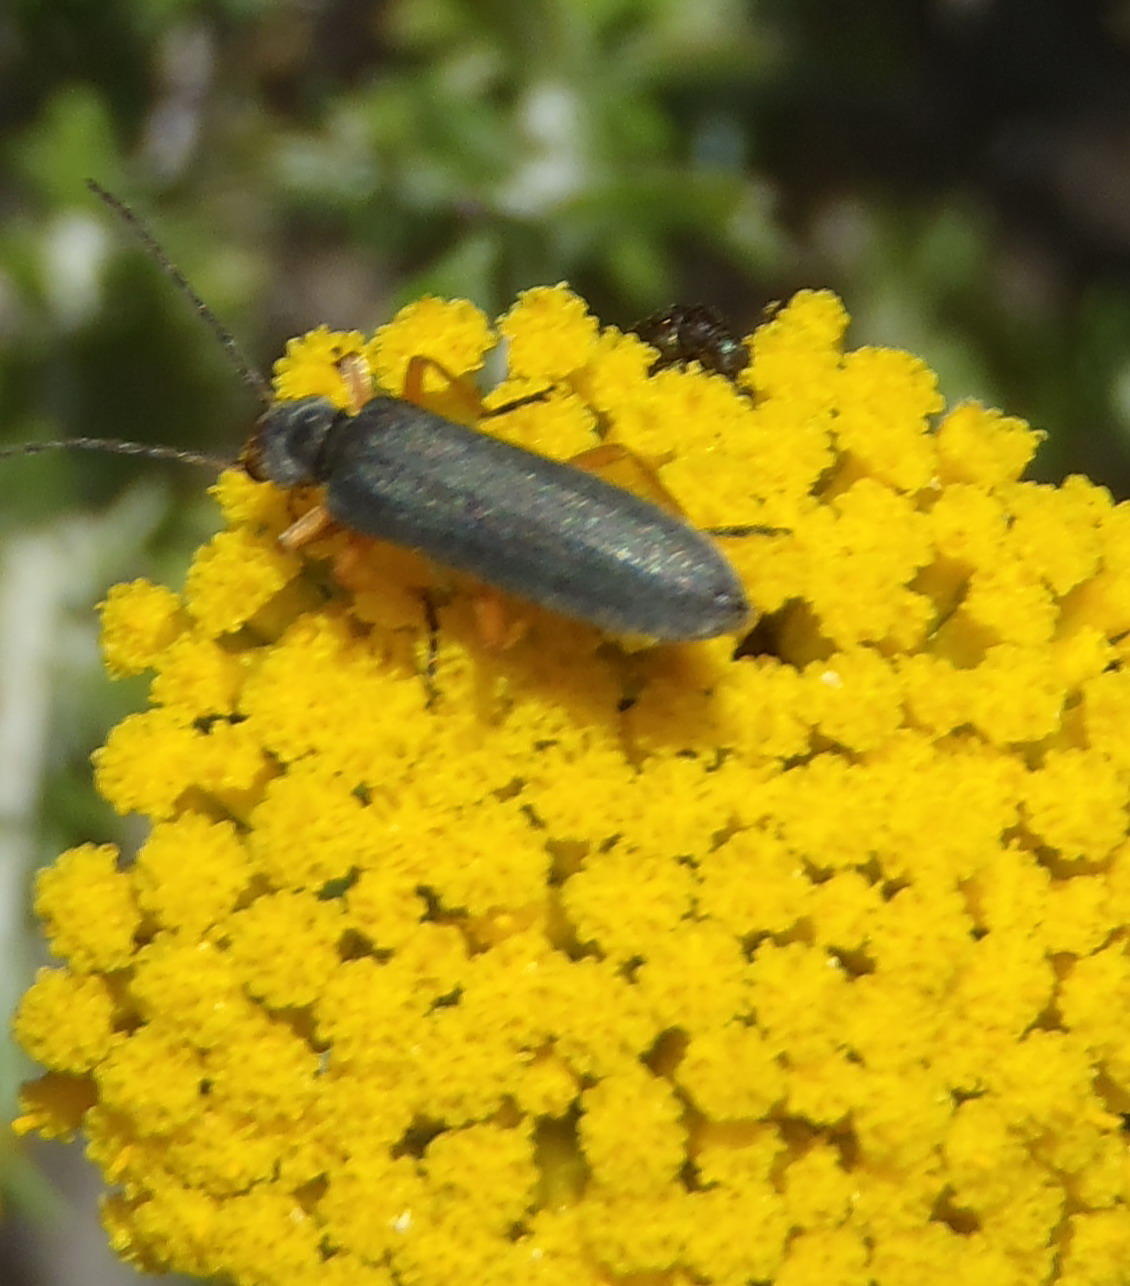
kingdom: Animalia
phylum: Arthropoda
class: Insecta
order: Coleoptera
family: Oedemeridae
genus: Melananthia
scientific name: Melananthia
